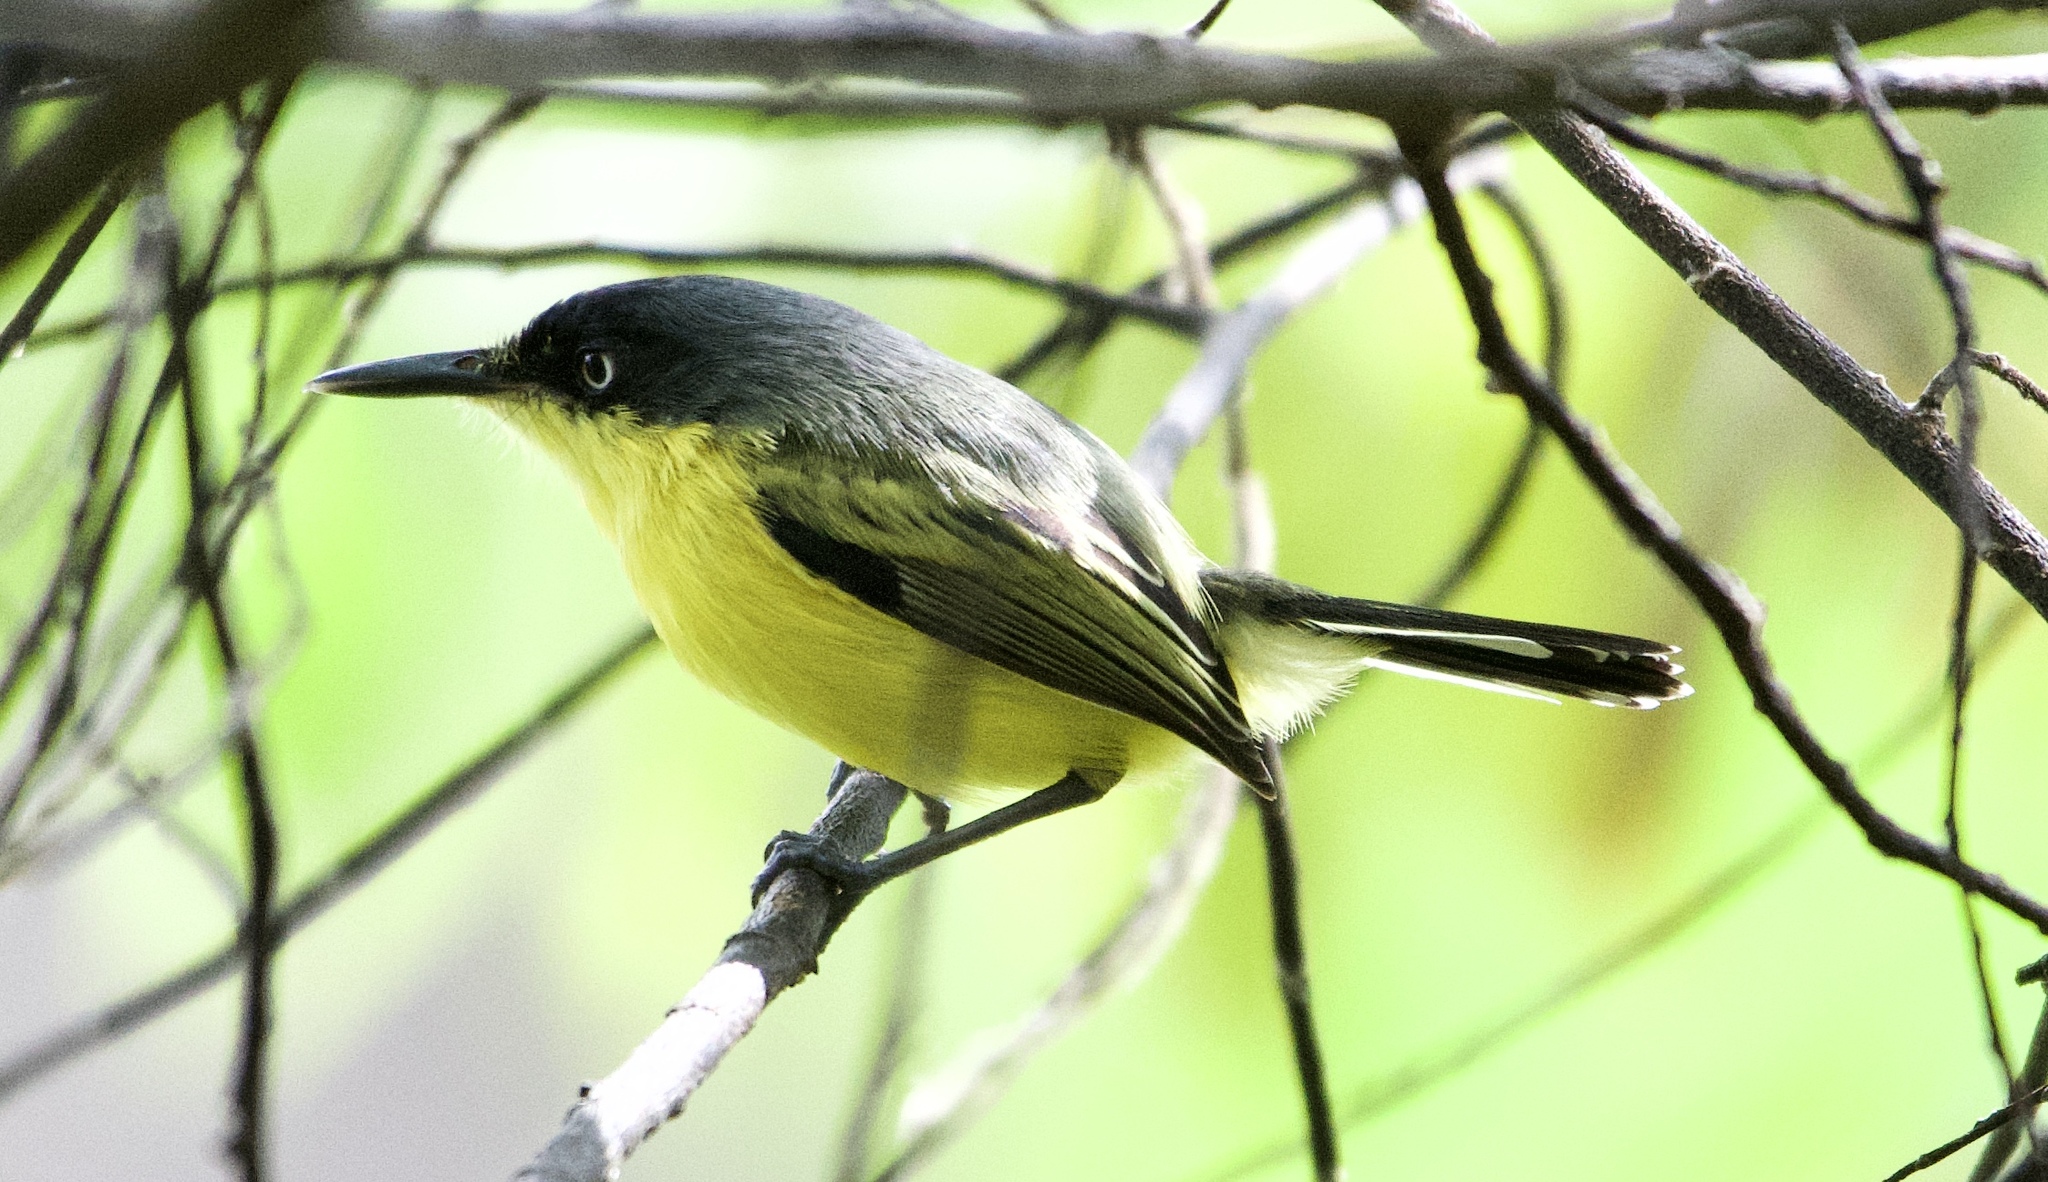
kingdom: Animalia
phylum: Chordata
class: Aves
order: Passeriformes
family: Tyrannidae
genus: Todirostrum
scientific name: Todirostrum cinereum
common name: Common tody-flycatcher
